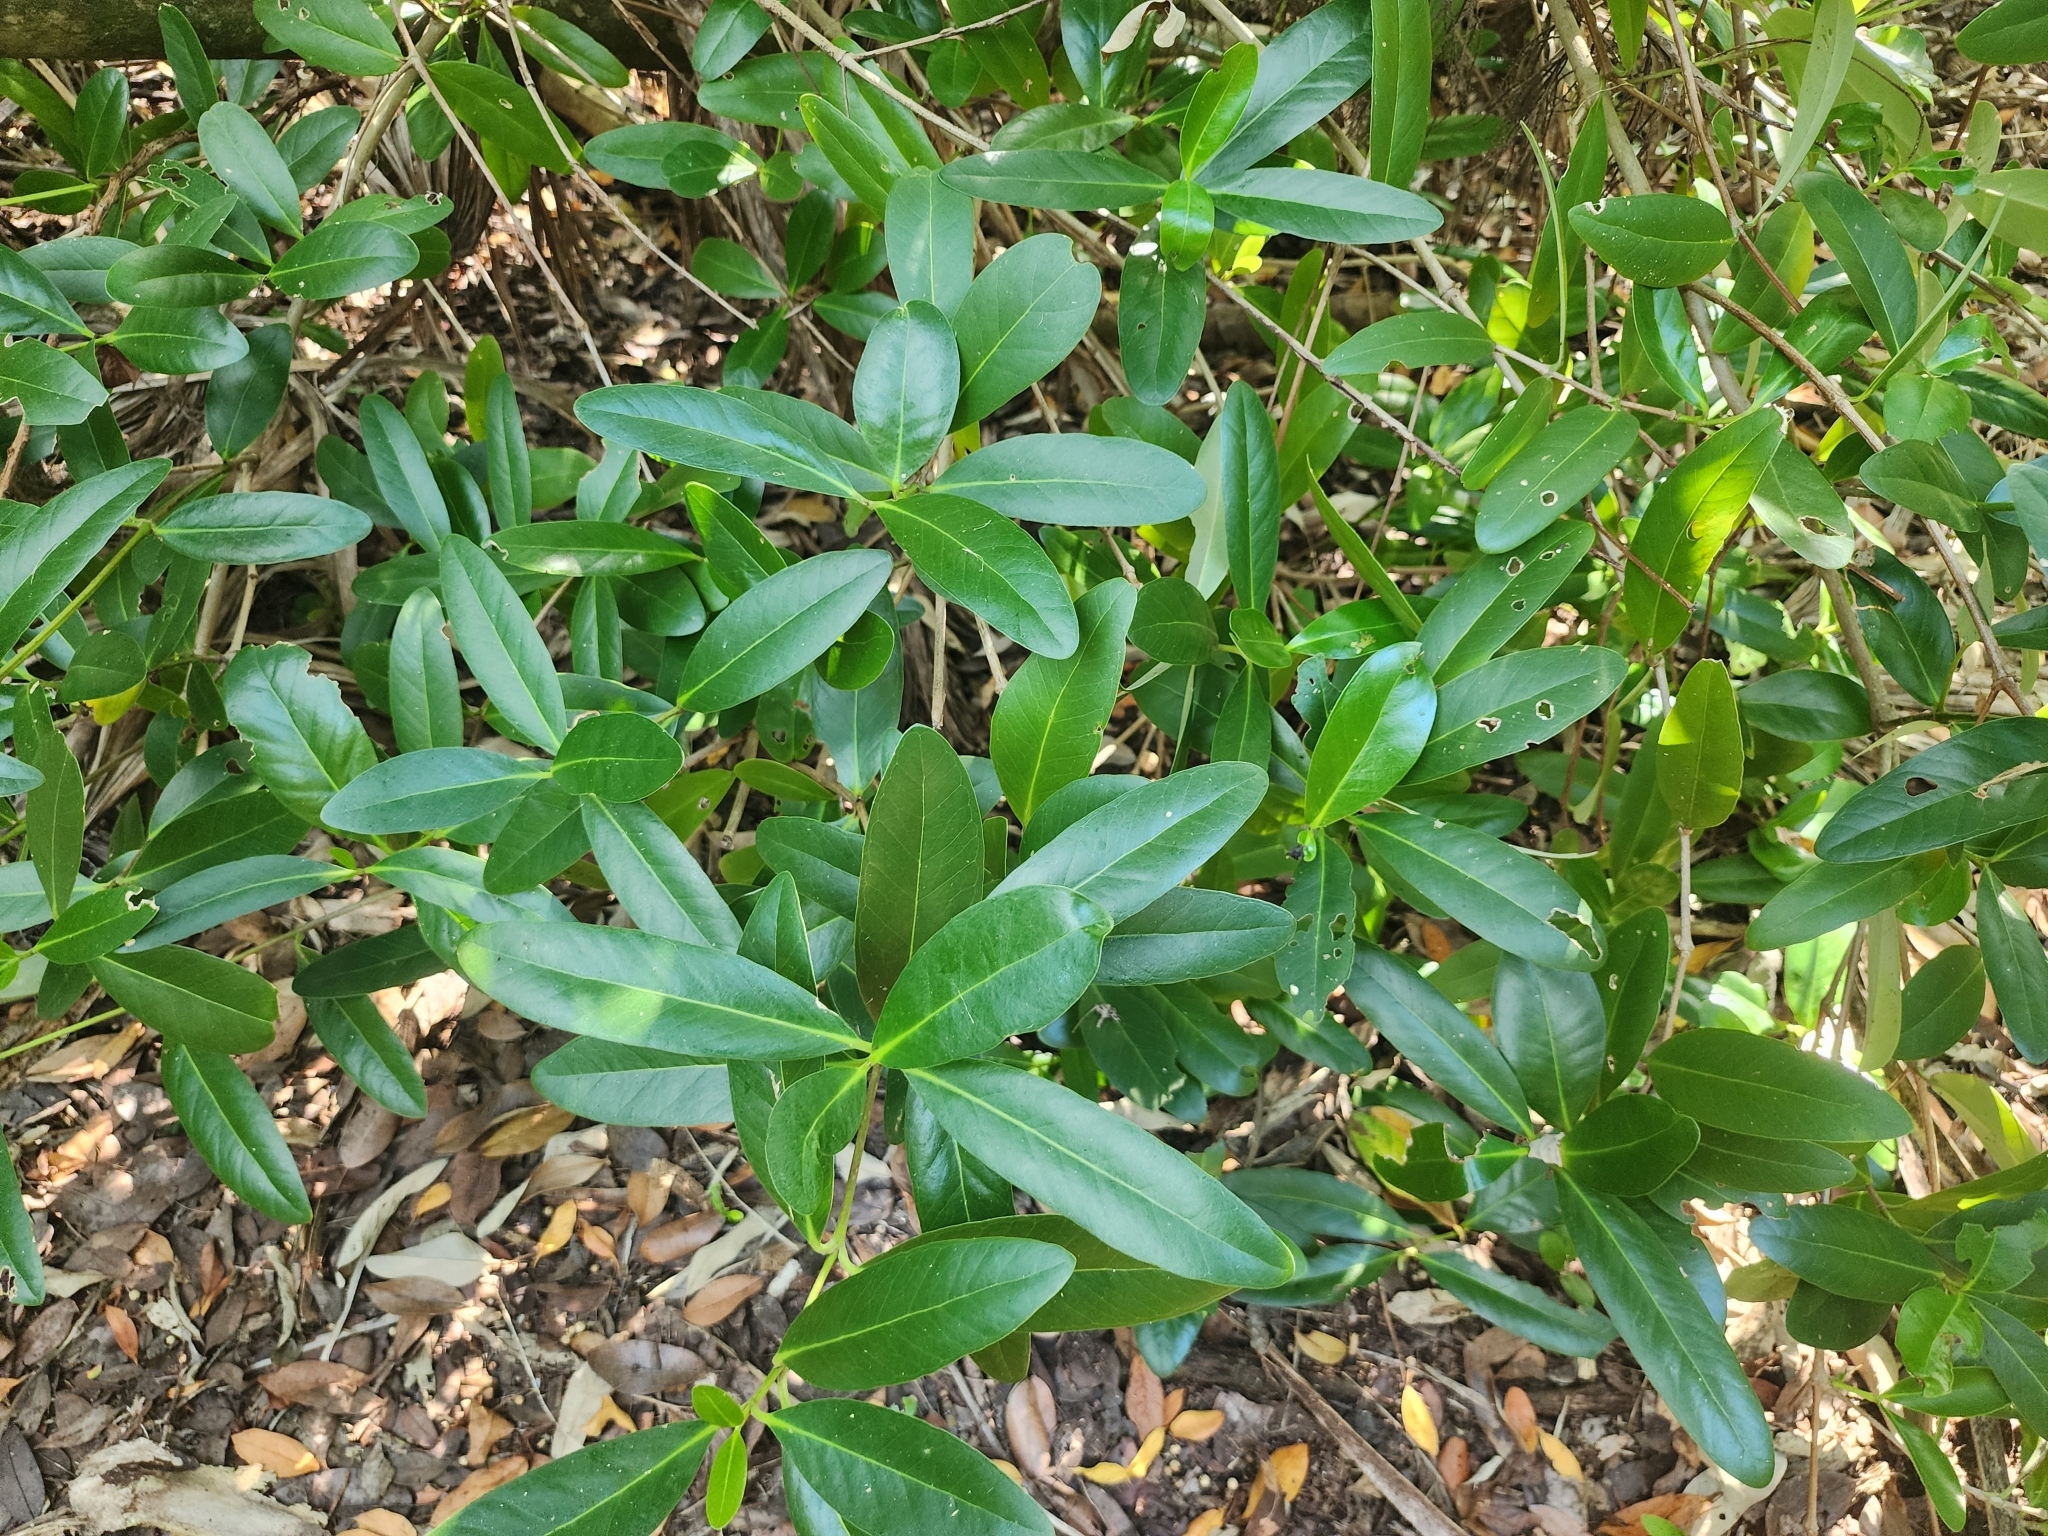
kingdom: Plantae
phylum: Tracheophyta
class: Magnoliopsida
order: Lamiales
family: Acanthaceae
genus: Avicennia
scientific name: Avicennia germinans
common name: Black mangrove
